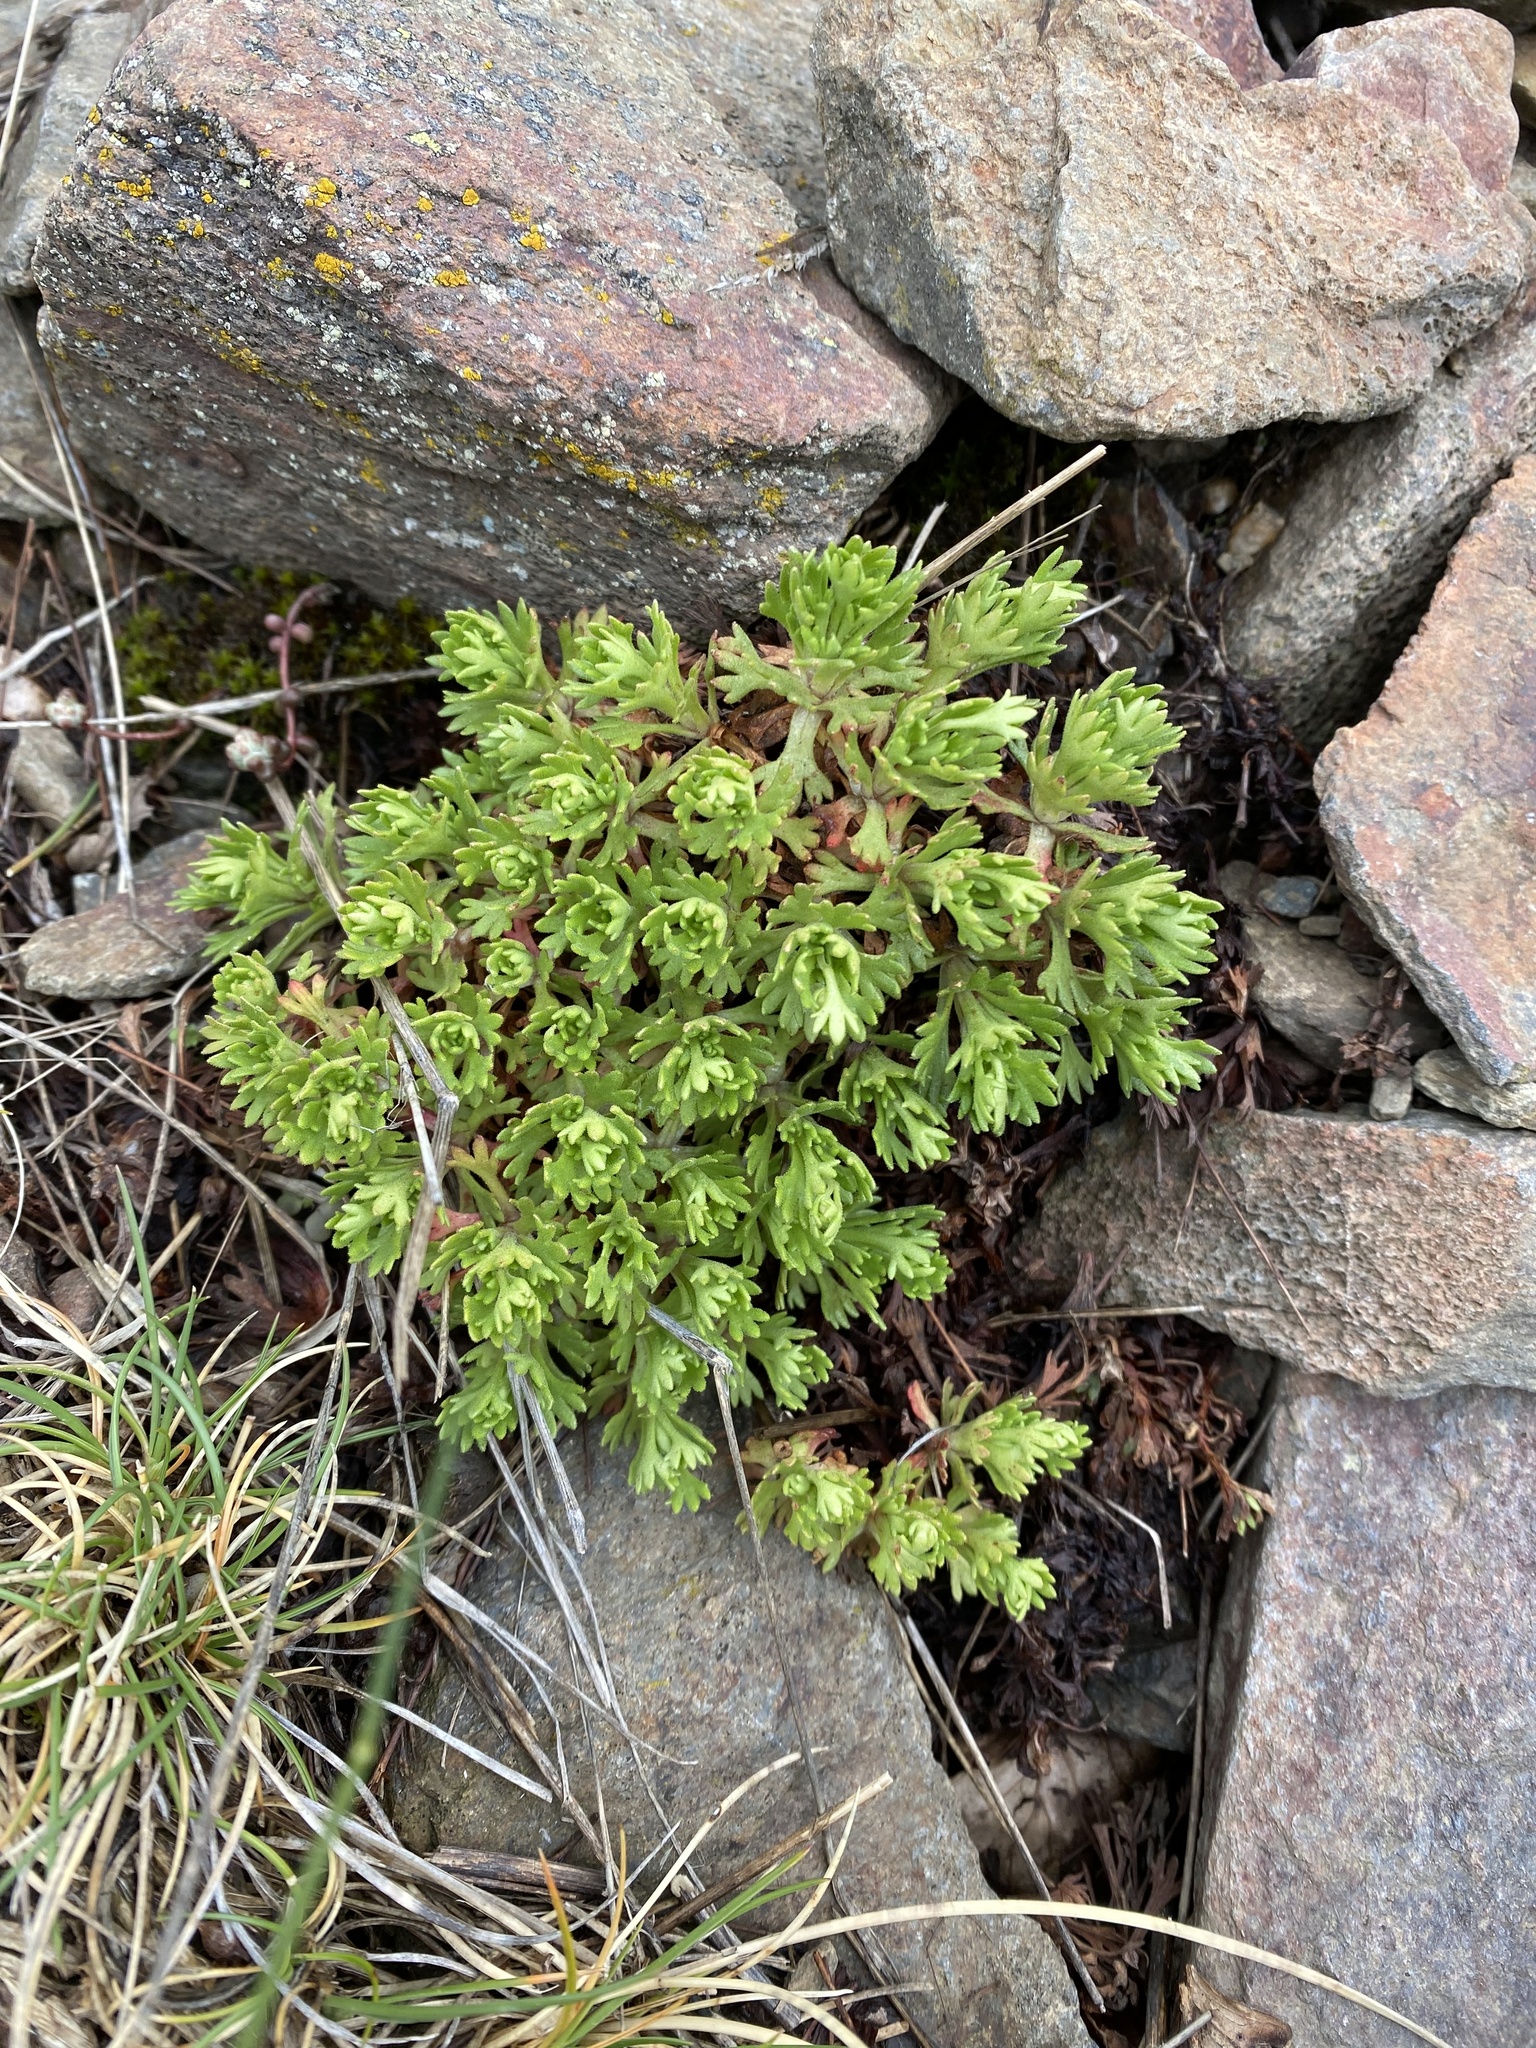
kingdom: Plantae
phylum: Tracheophyta
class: Magnoliopsida
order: Saxifragales
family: Saxifragaceae
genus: Saxifraga
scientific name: Saxifraga vayredana
